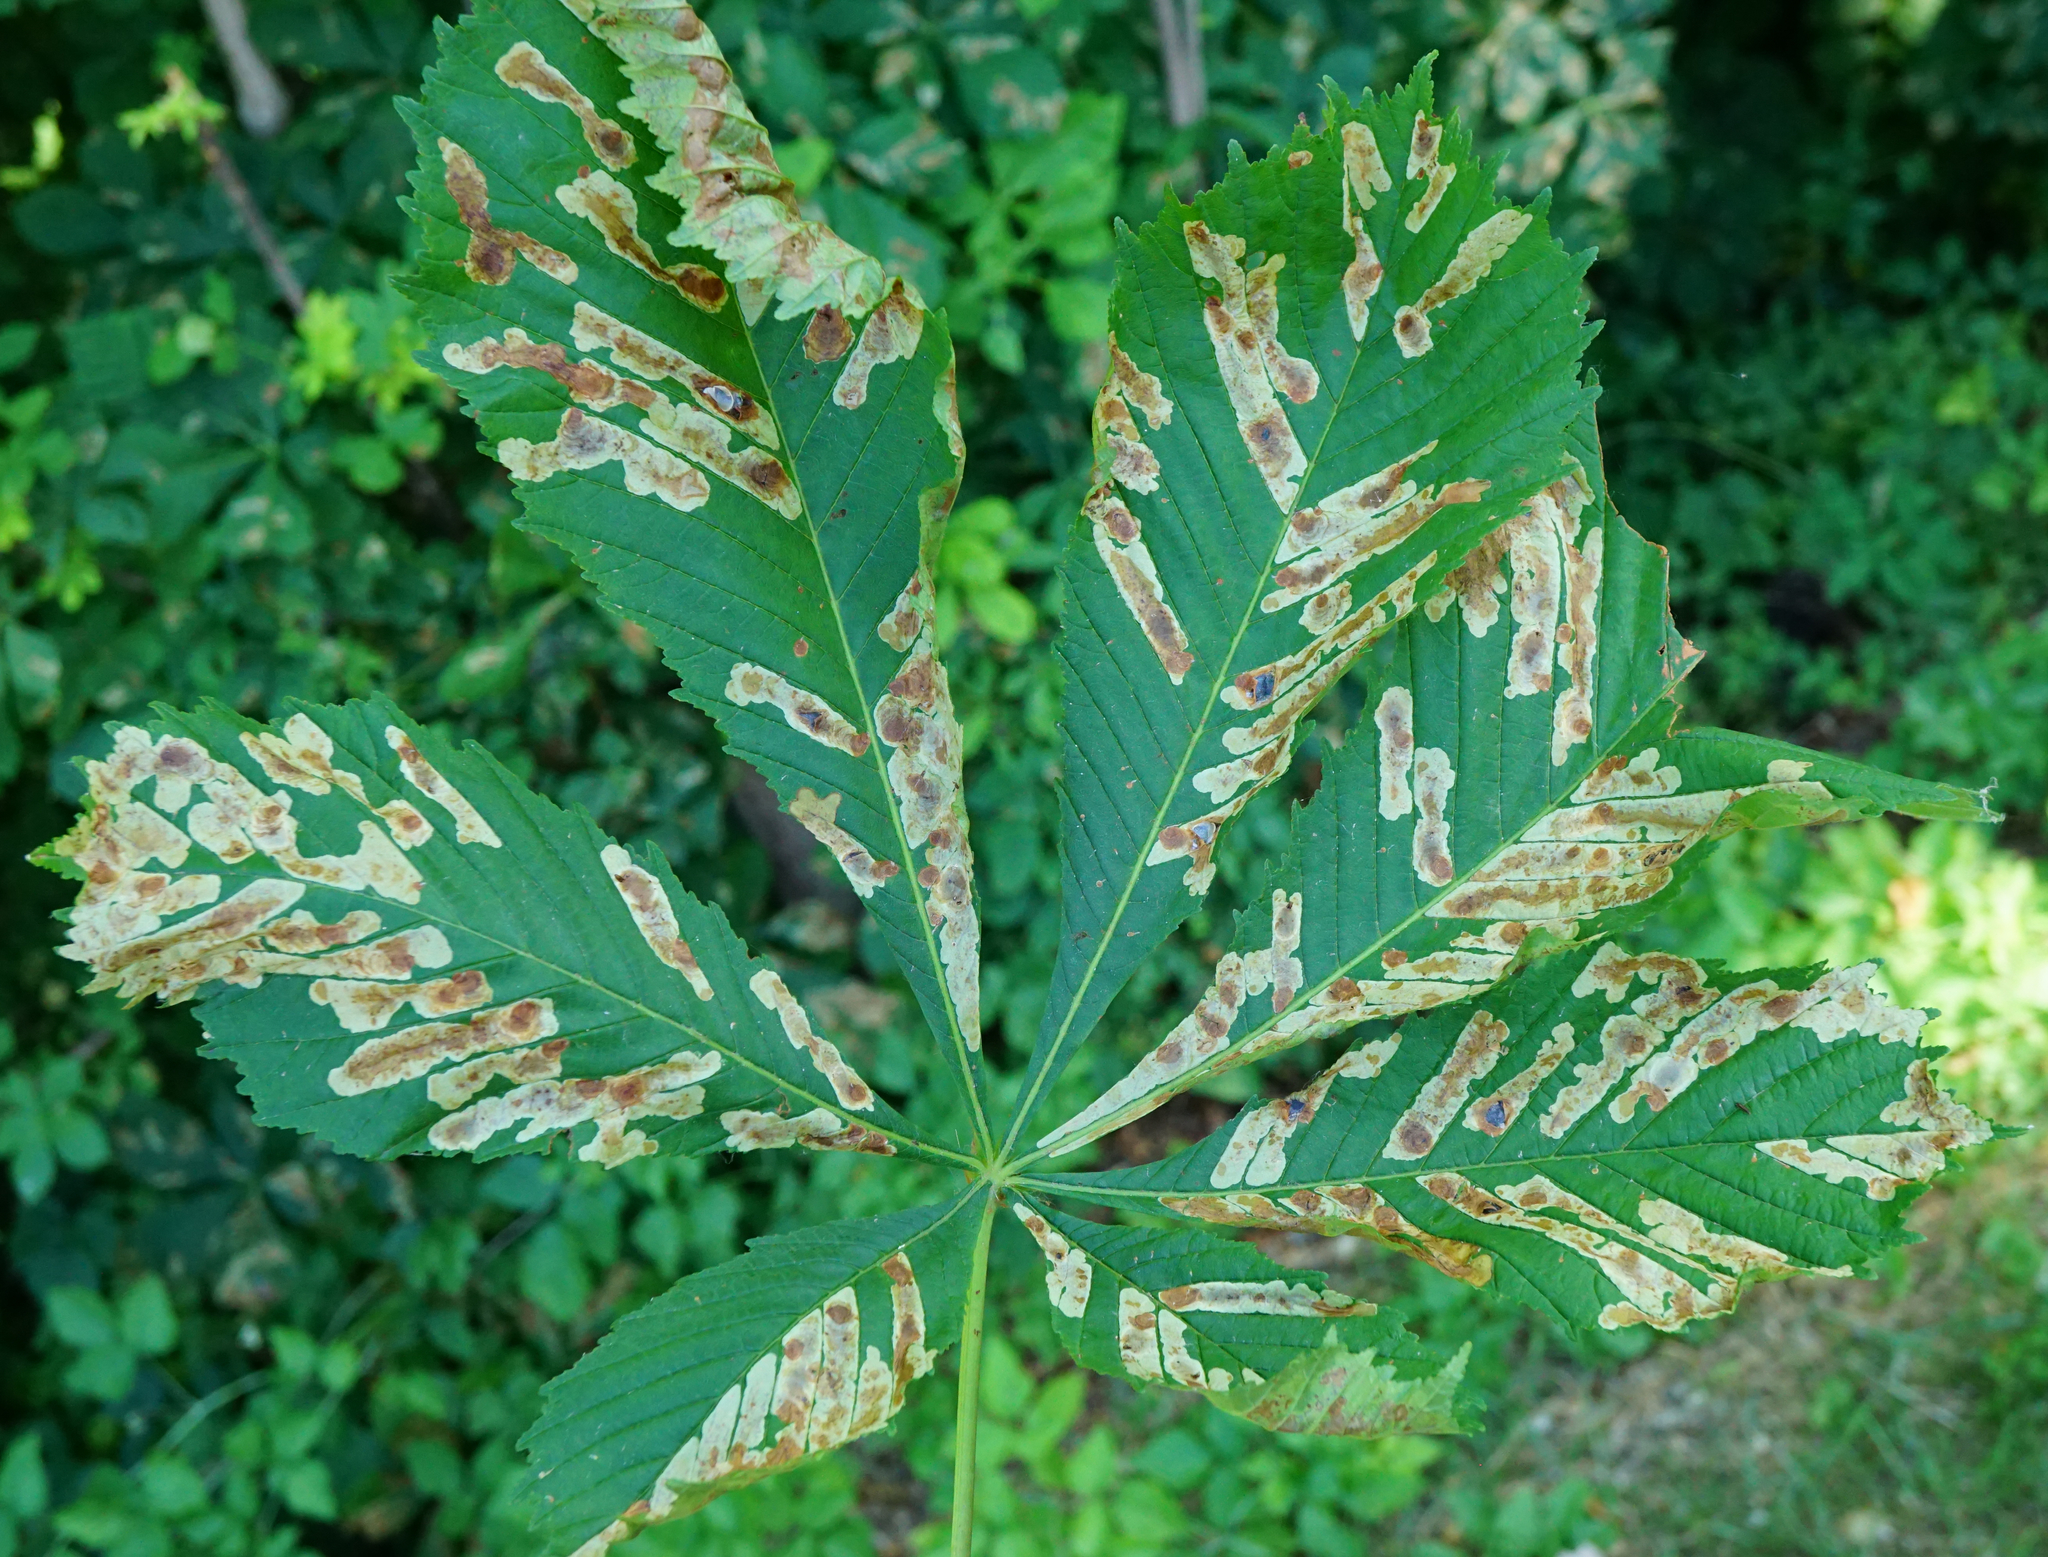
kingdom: Animalia
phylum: Arthropoda
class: Insecta
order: Lepidoptera
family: Gracillariidae
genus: Cameraria
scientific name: Cameraria ohridella
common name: Horse-chestnut leaf-miner
